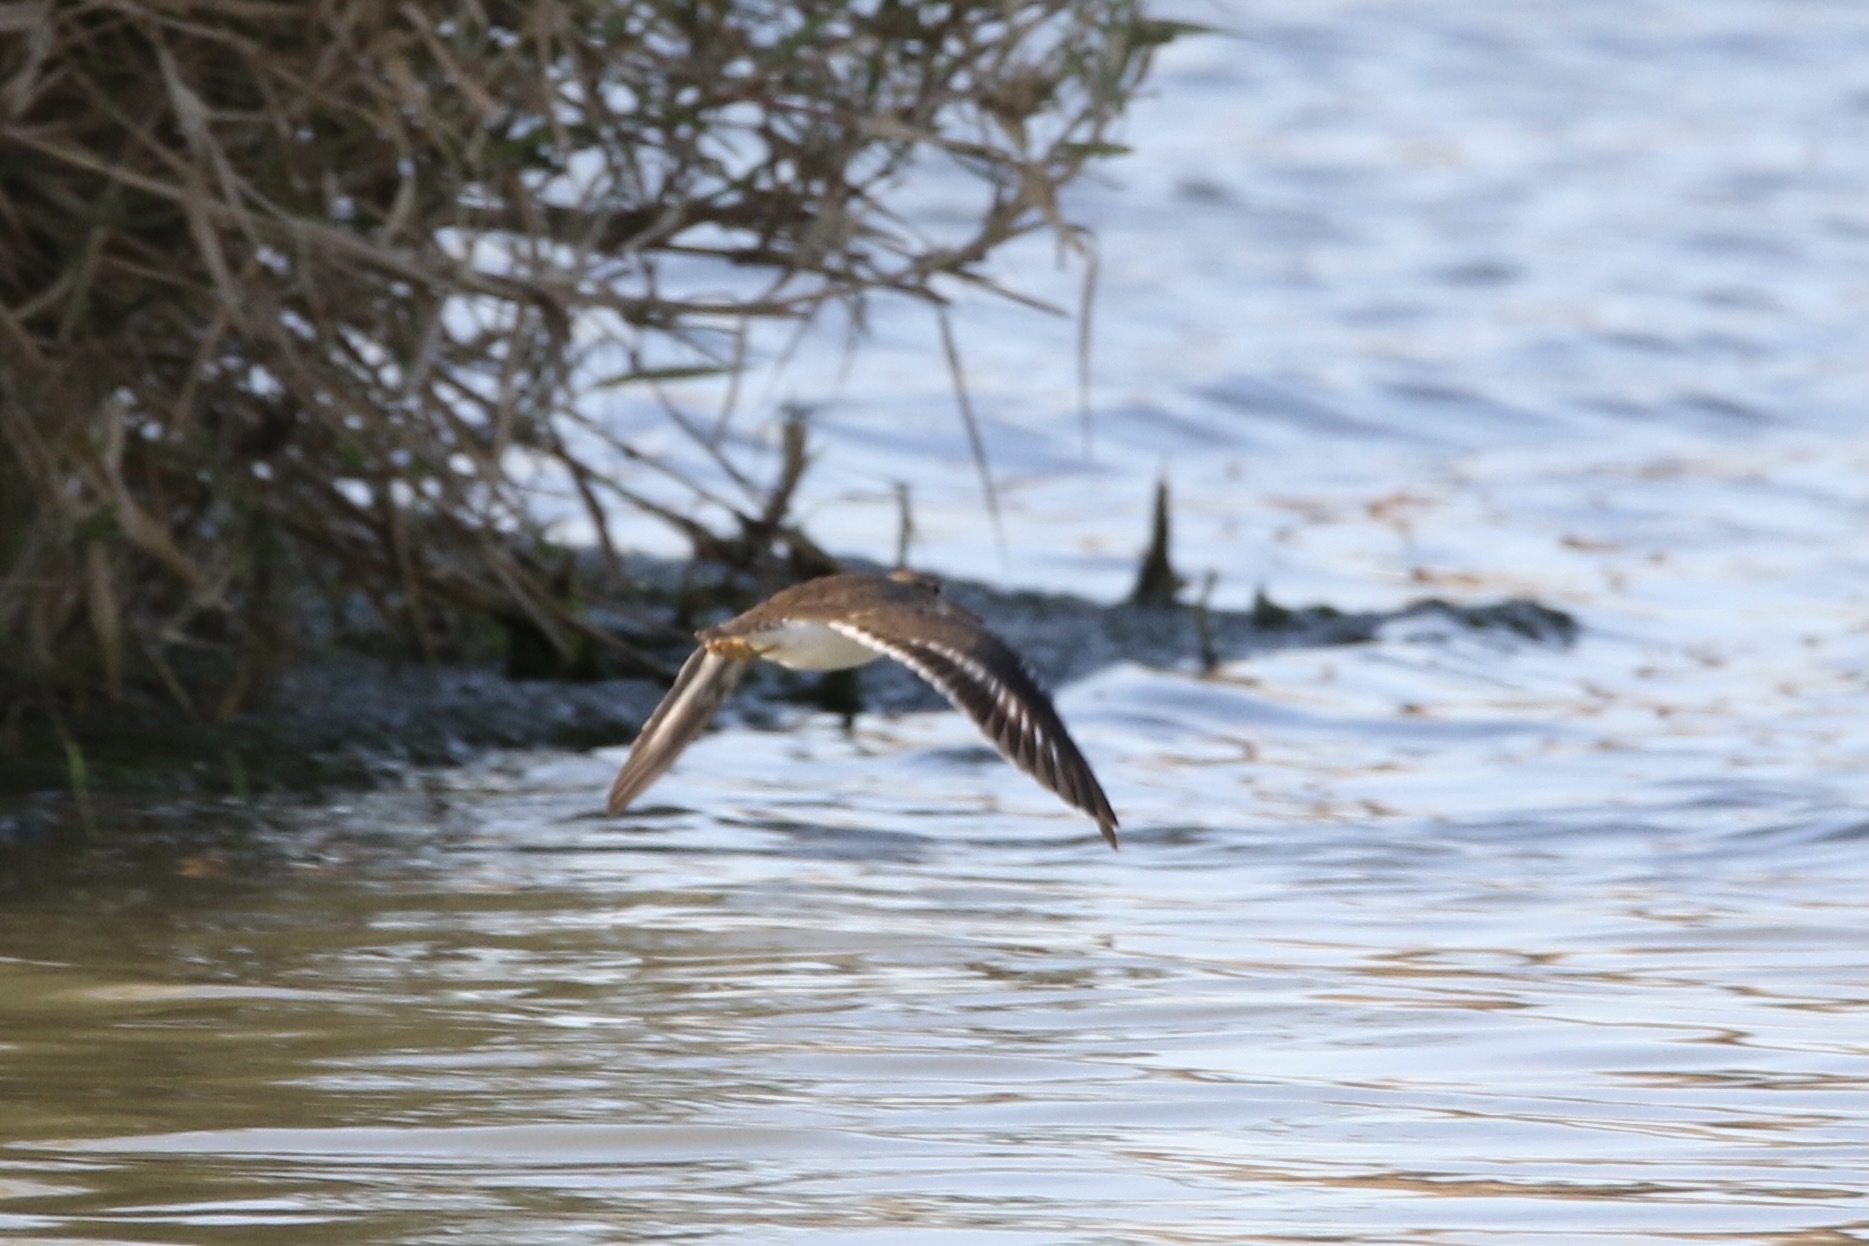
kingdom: Animalia
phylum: Chordata
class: Aves
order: Charadriiformes
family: Scolopacidae
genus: Actitis
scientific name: Actitis macularius
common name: Spotted sandpiper
